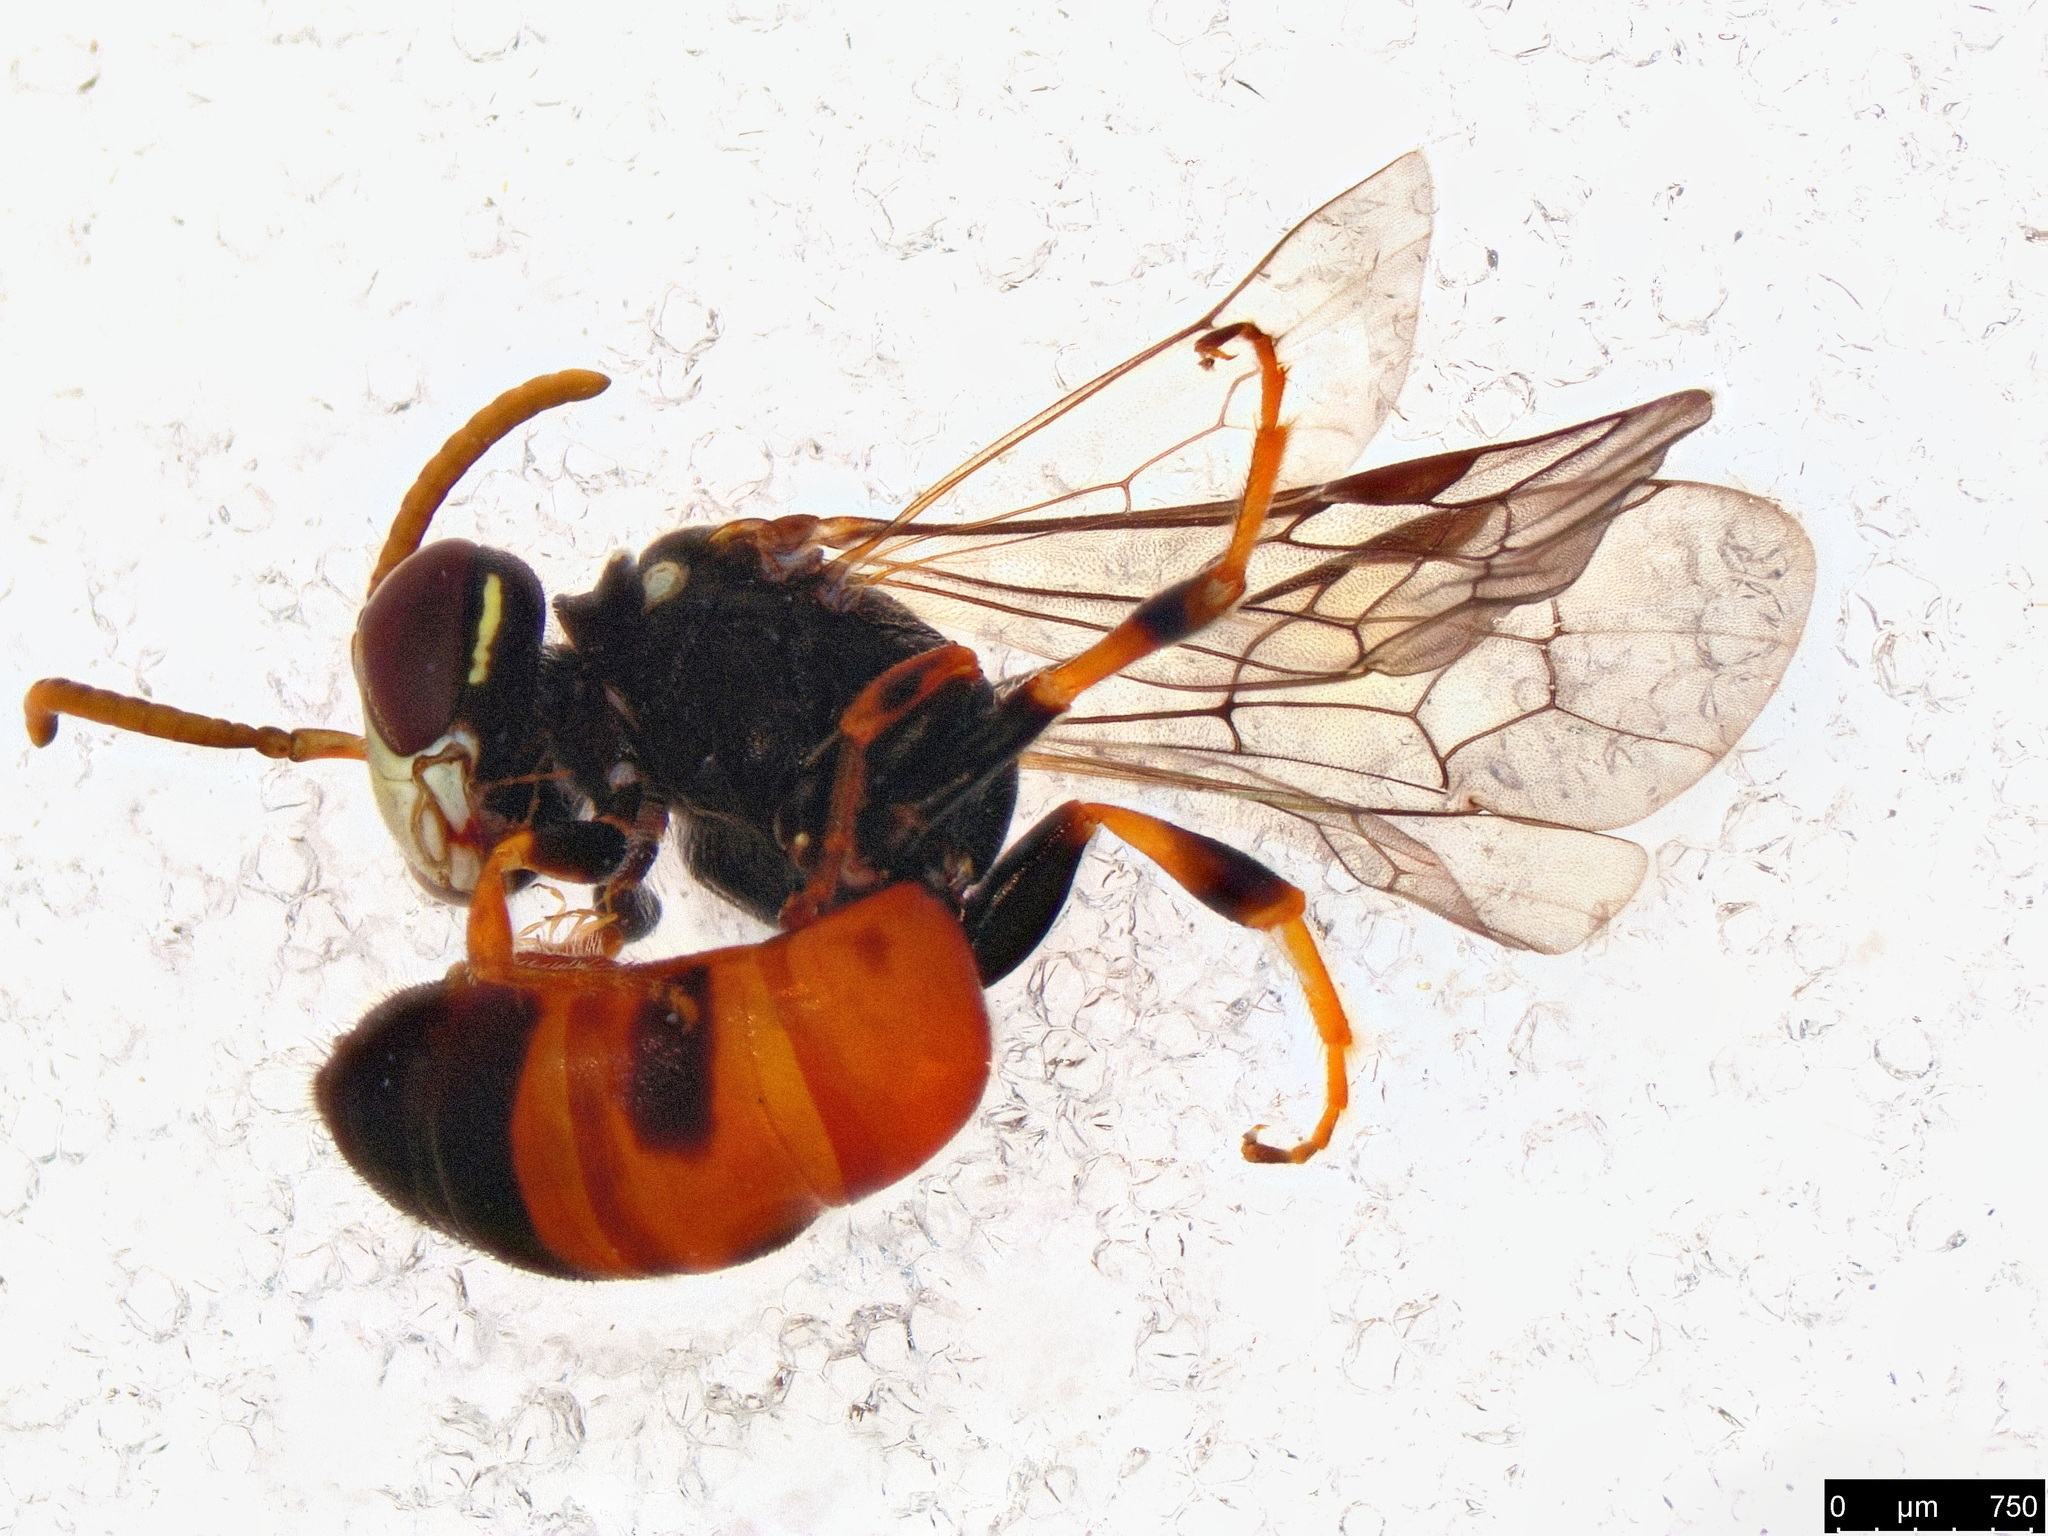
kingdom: Animalia
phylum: Arthropoda
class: Insecta
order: Hymenoptera
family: Colletidae
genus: Hylaeus
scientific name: Hylaeus littleri
